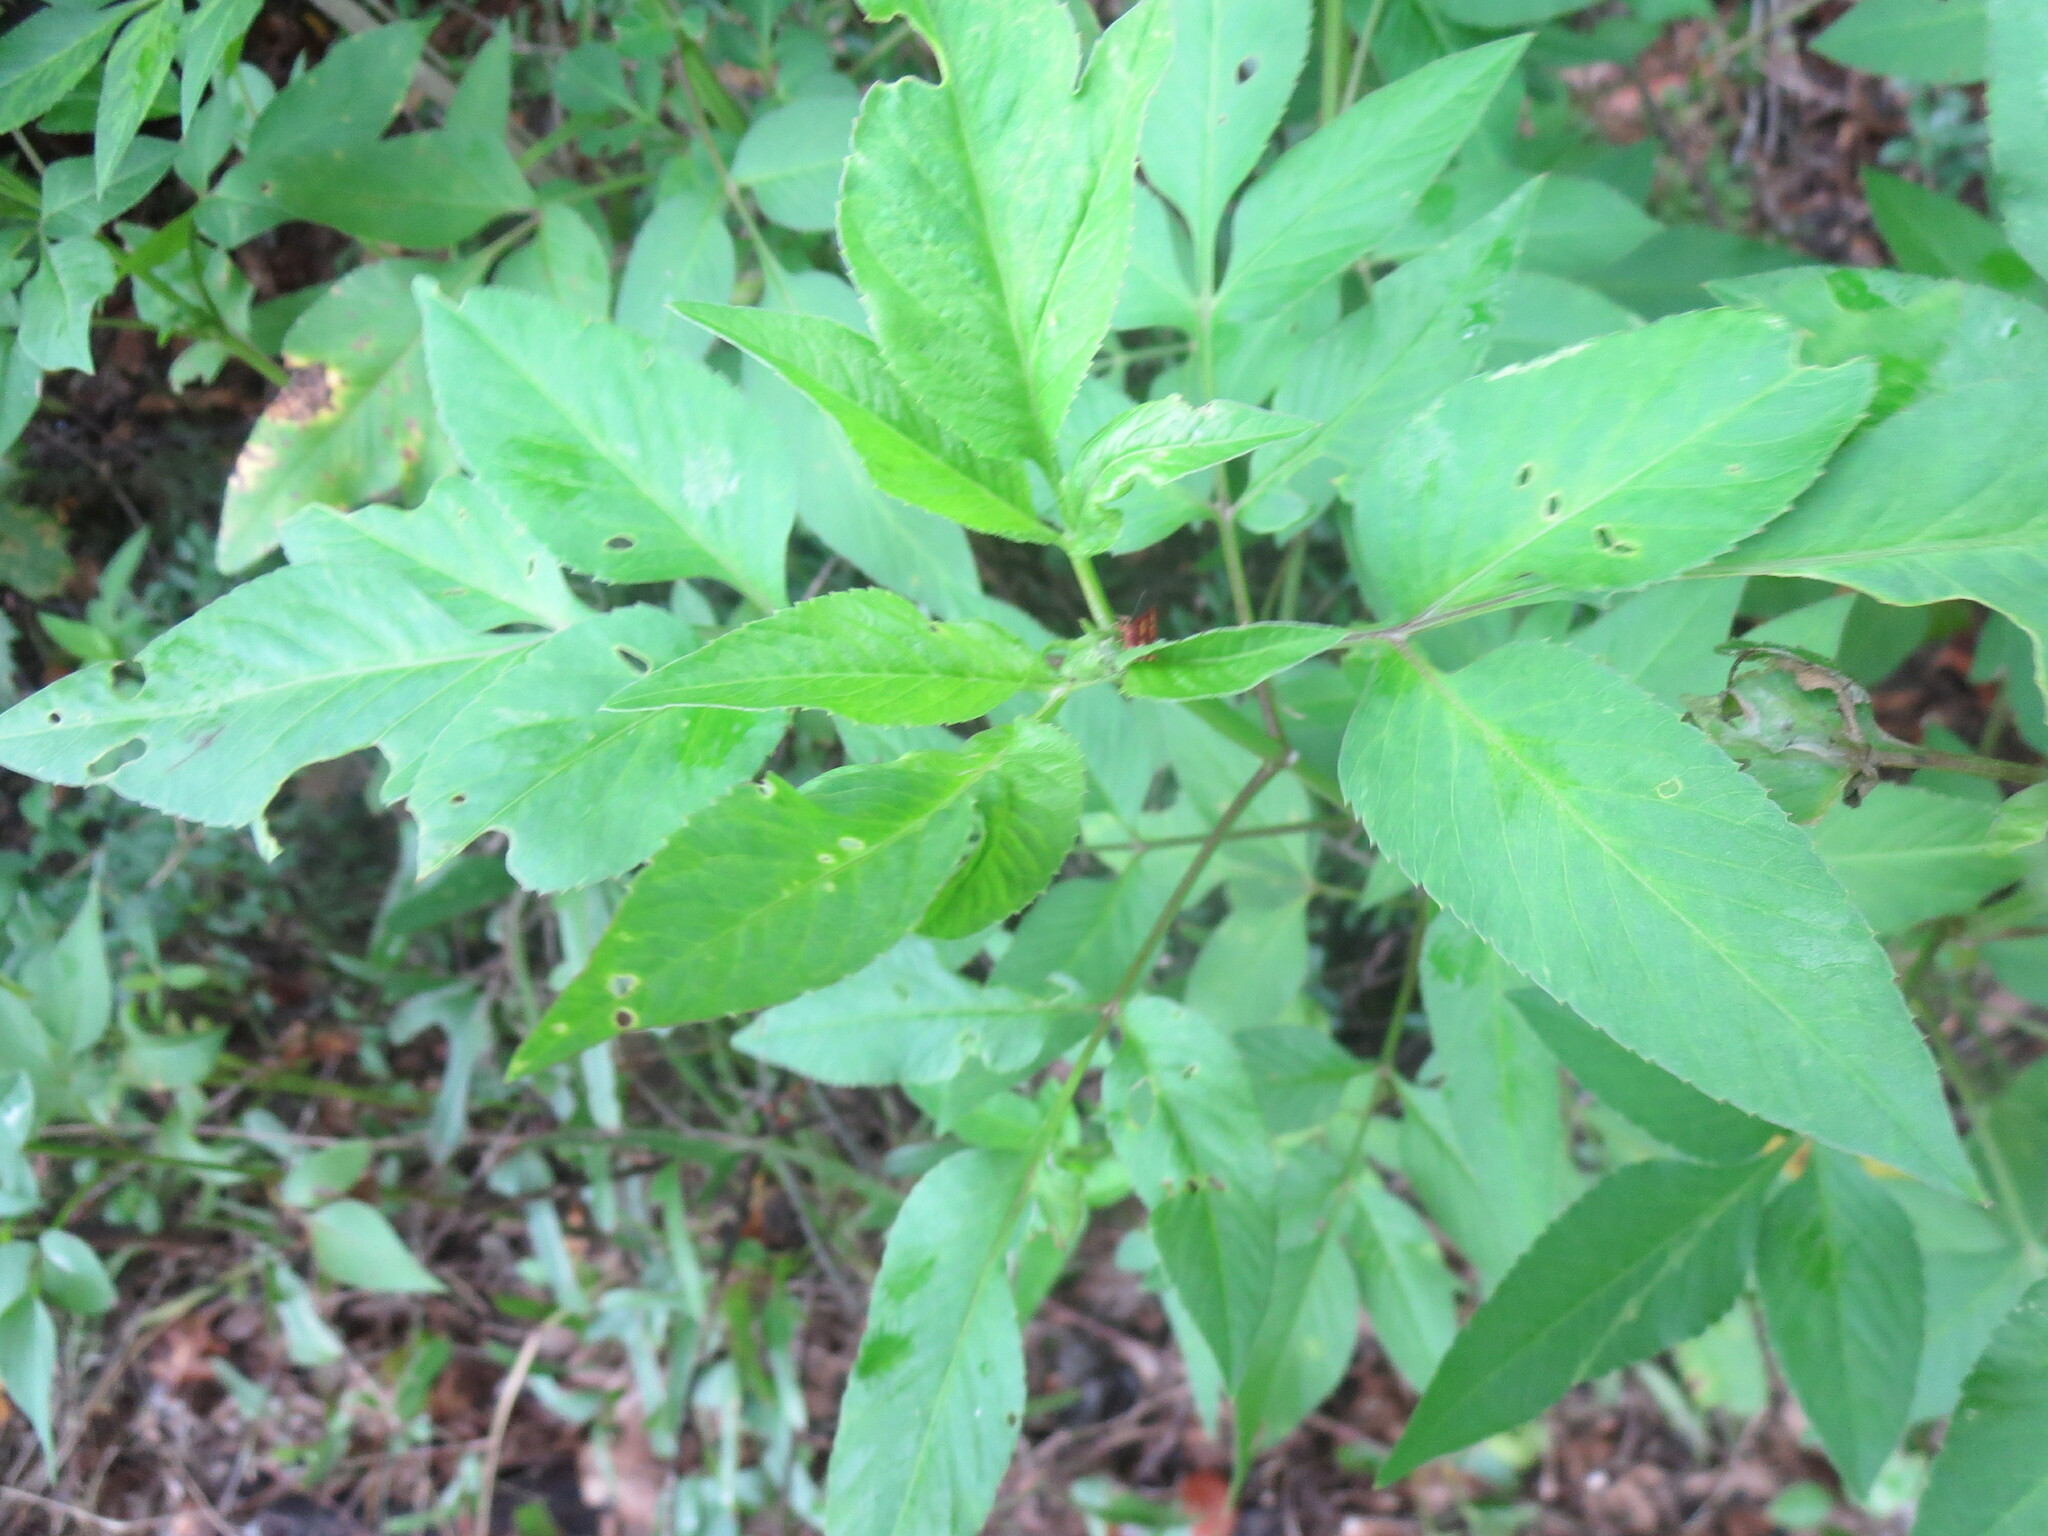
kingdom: Plantae
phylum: Tracheophyta
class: Magnoliopsida
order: Asterales
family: Asteraceae
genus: Bidens
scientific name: Bidens alba
